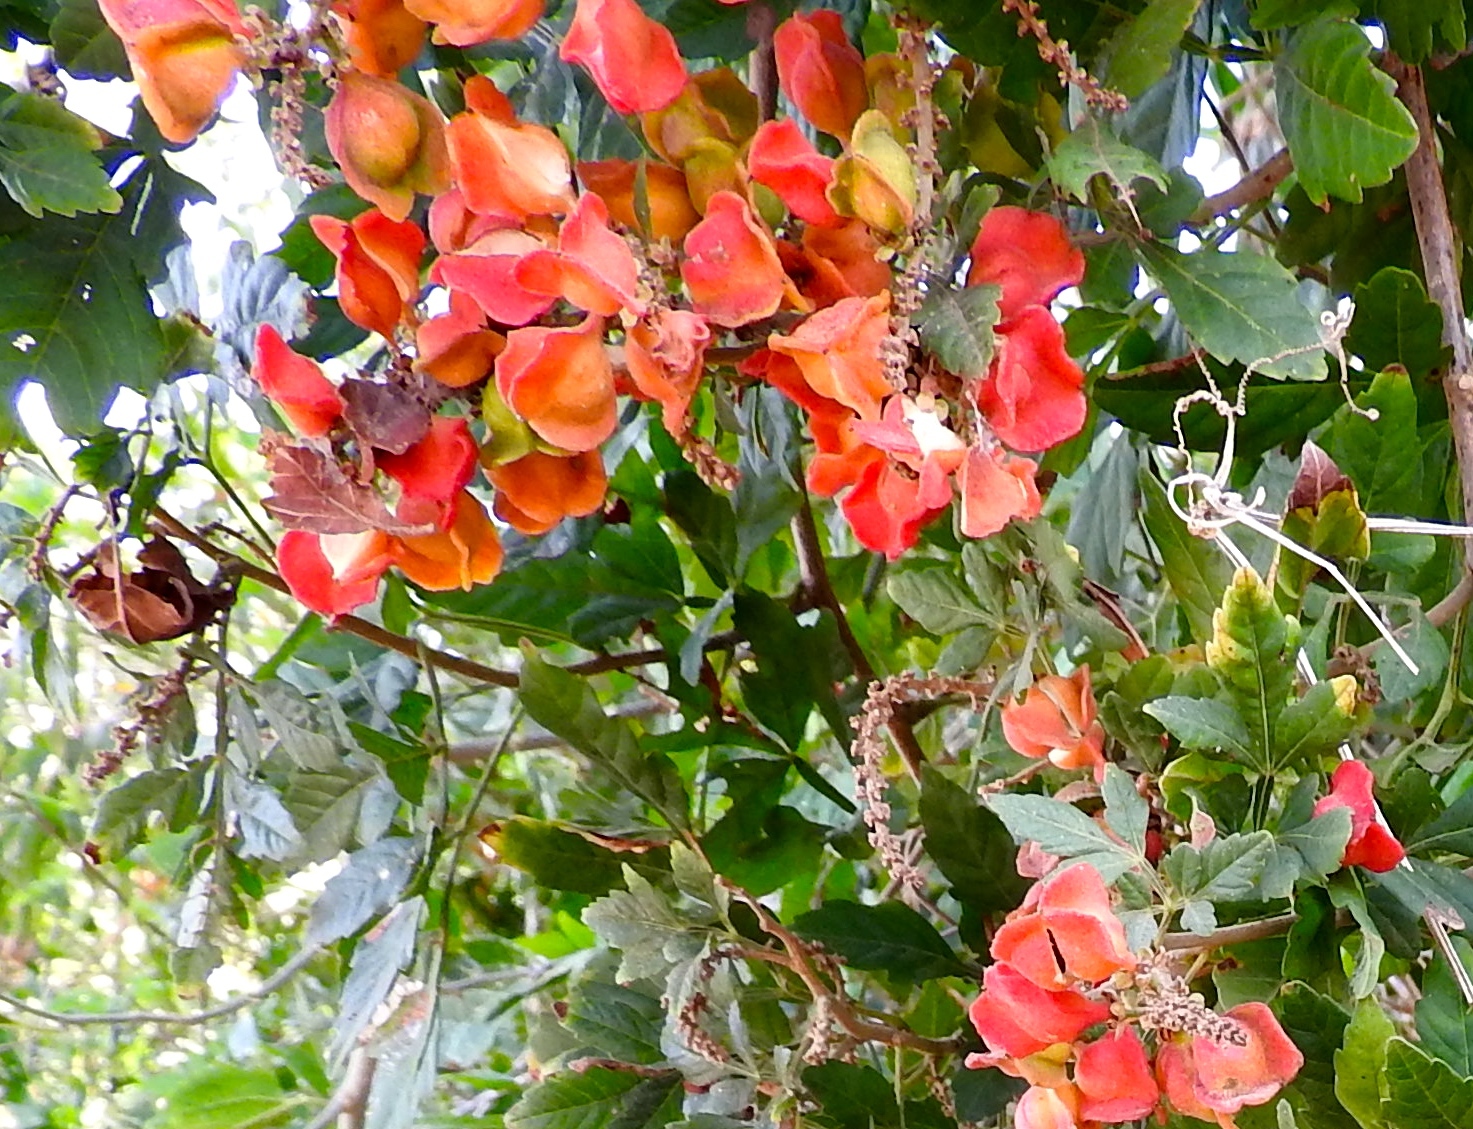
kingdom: Plantae
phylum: Tracheophyta
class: Magnoliopsida
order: Myrtales
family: Combretaceae
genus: Combretum
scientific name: Combretum farinosum
